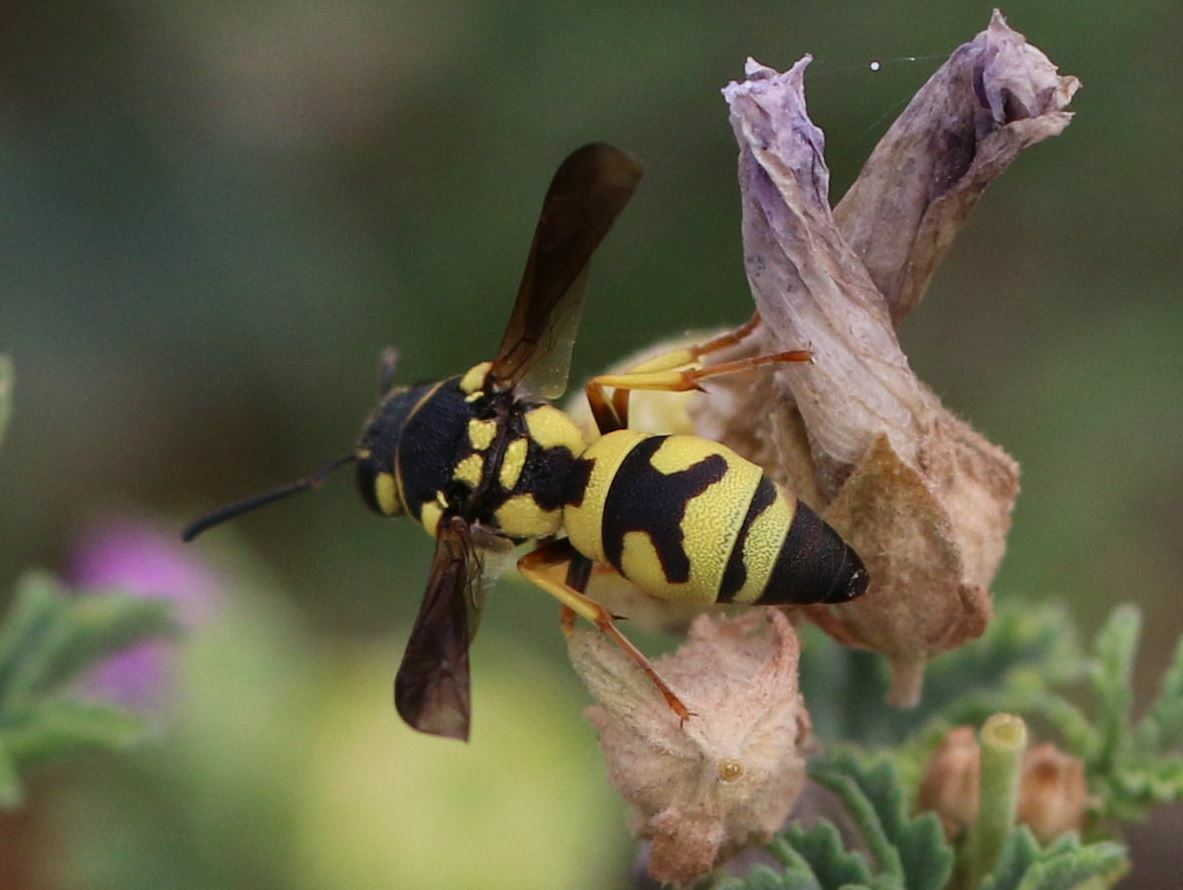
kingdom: Animalia
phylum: Arthropoda
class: Insecta
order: Hymenoptera
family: Eumenidae
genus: Parodontodynerus
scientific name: Parodontodynerus ephippium
